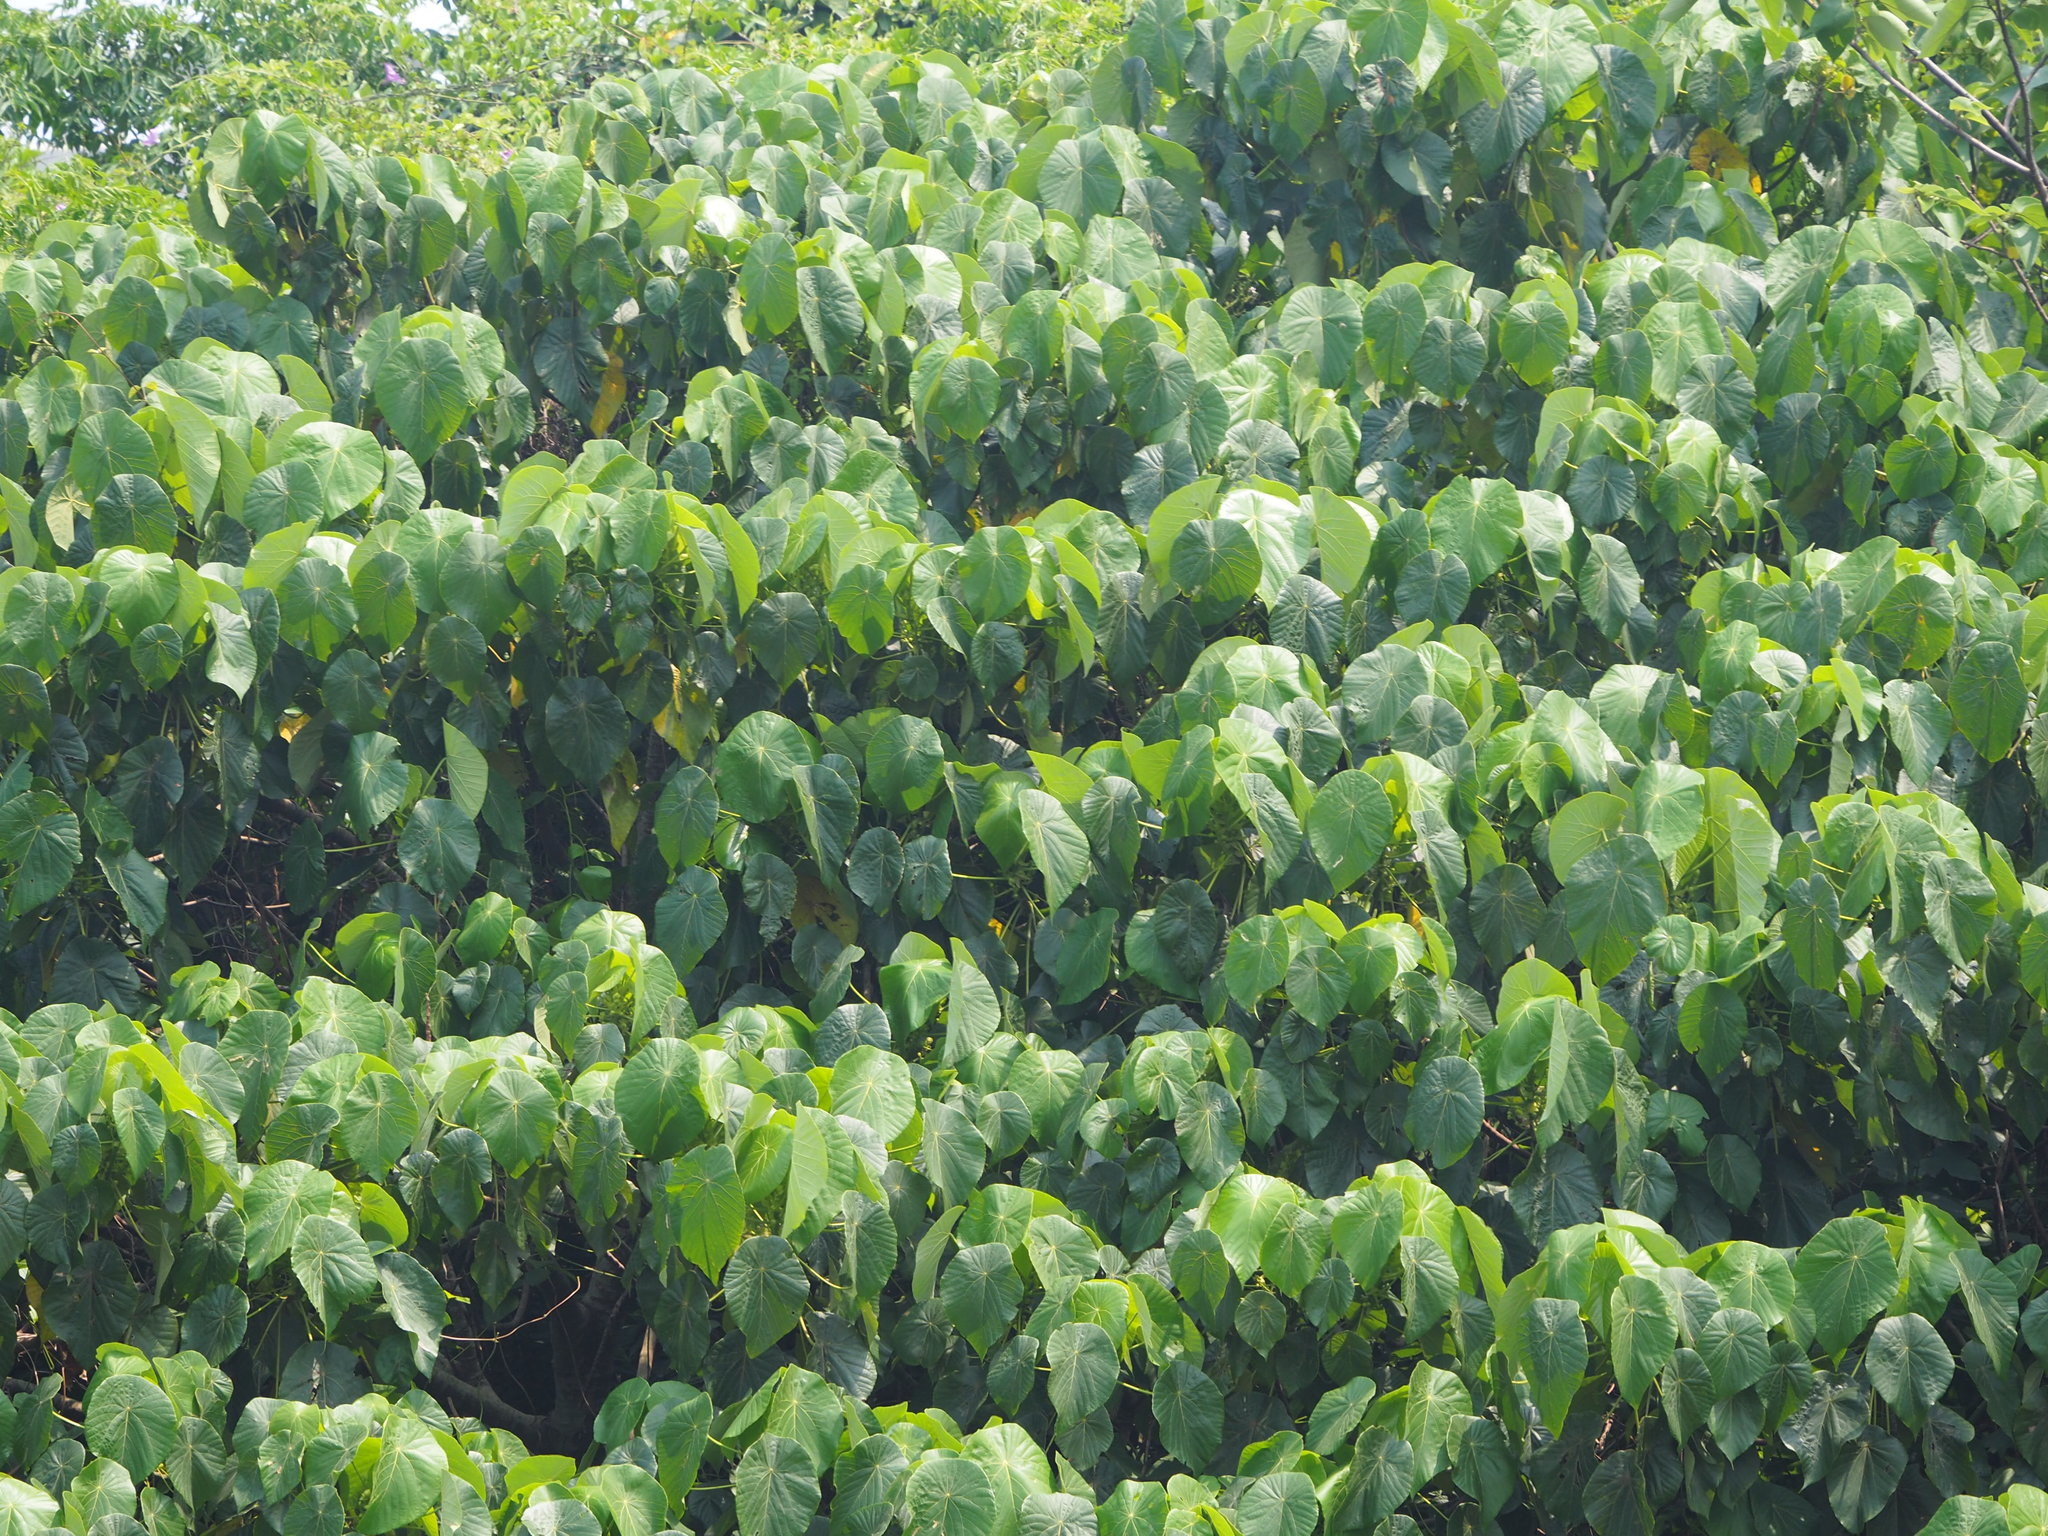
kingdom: Plantae
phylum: Tracheophyta
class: Magnoliopsida
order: Malpighiales
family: Euphorbiaceae
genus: Macaranga
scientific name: Macaranga tanarius
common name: Parasol leaf tree
